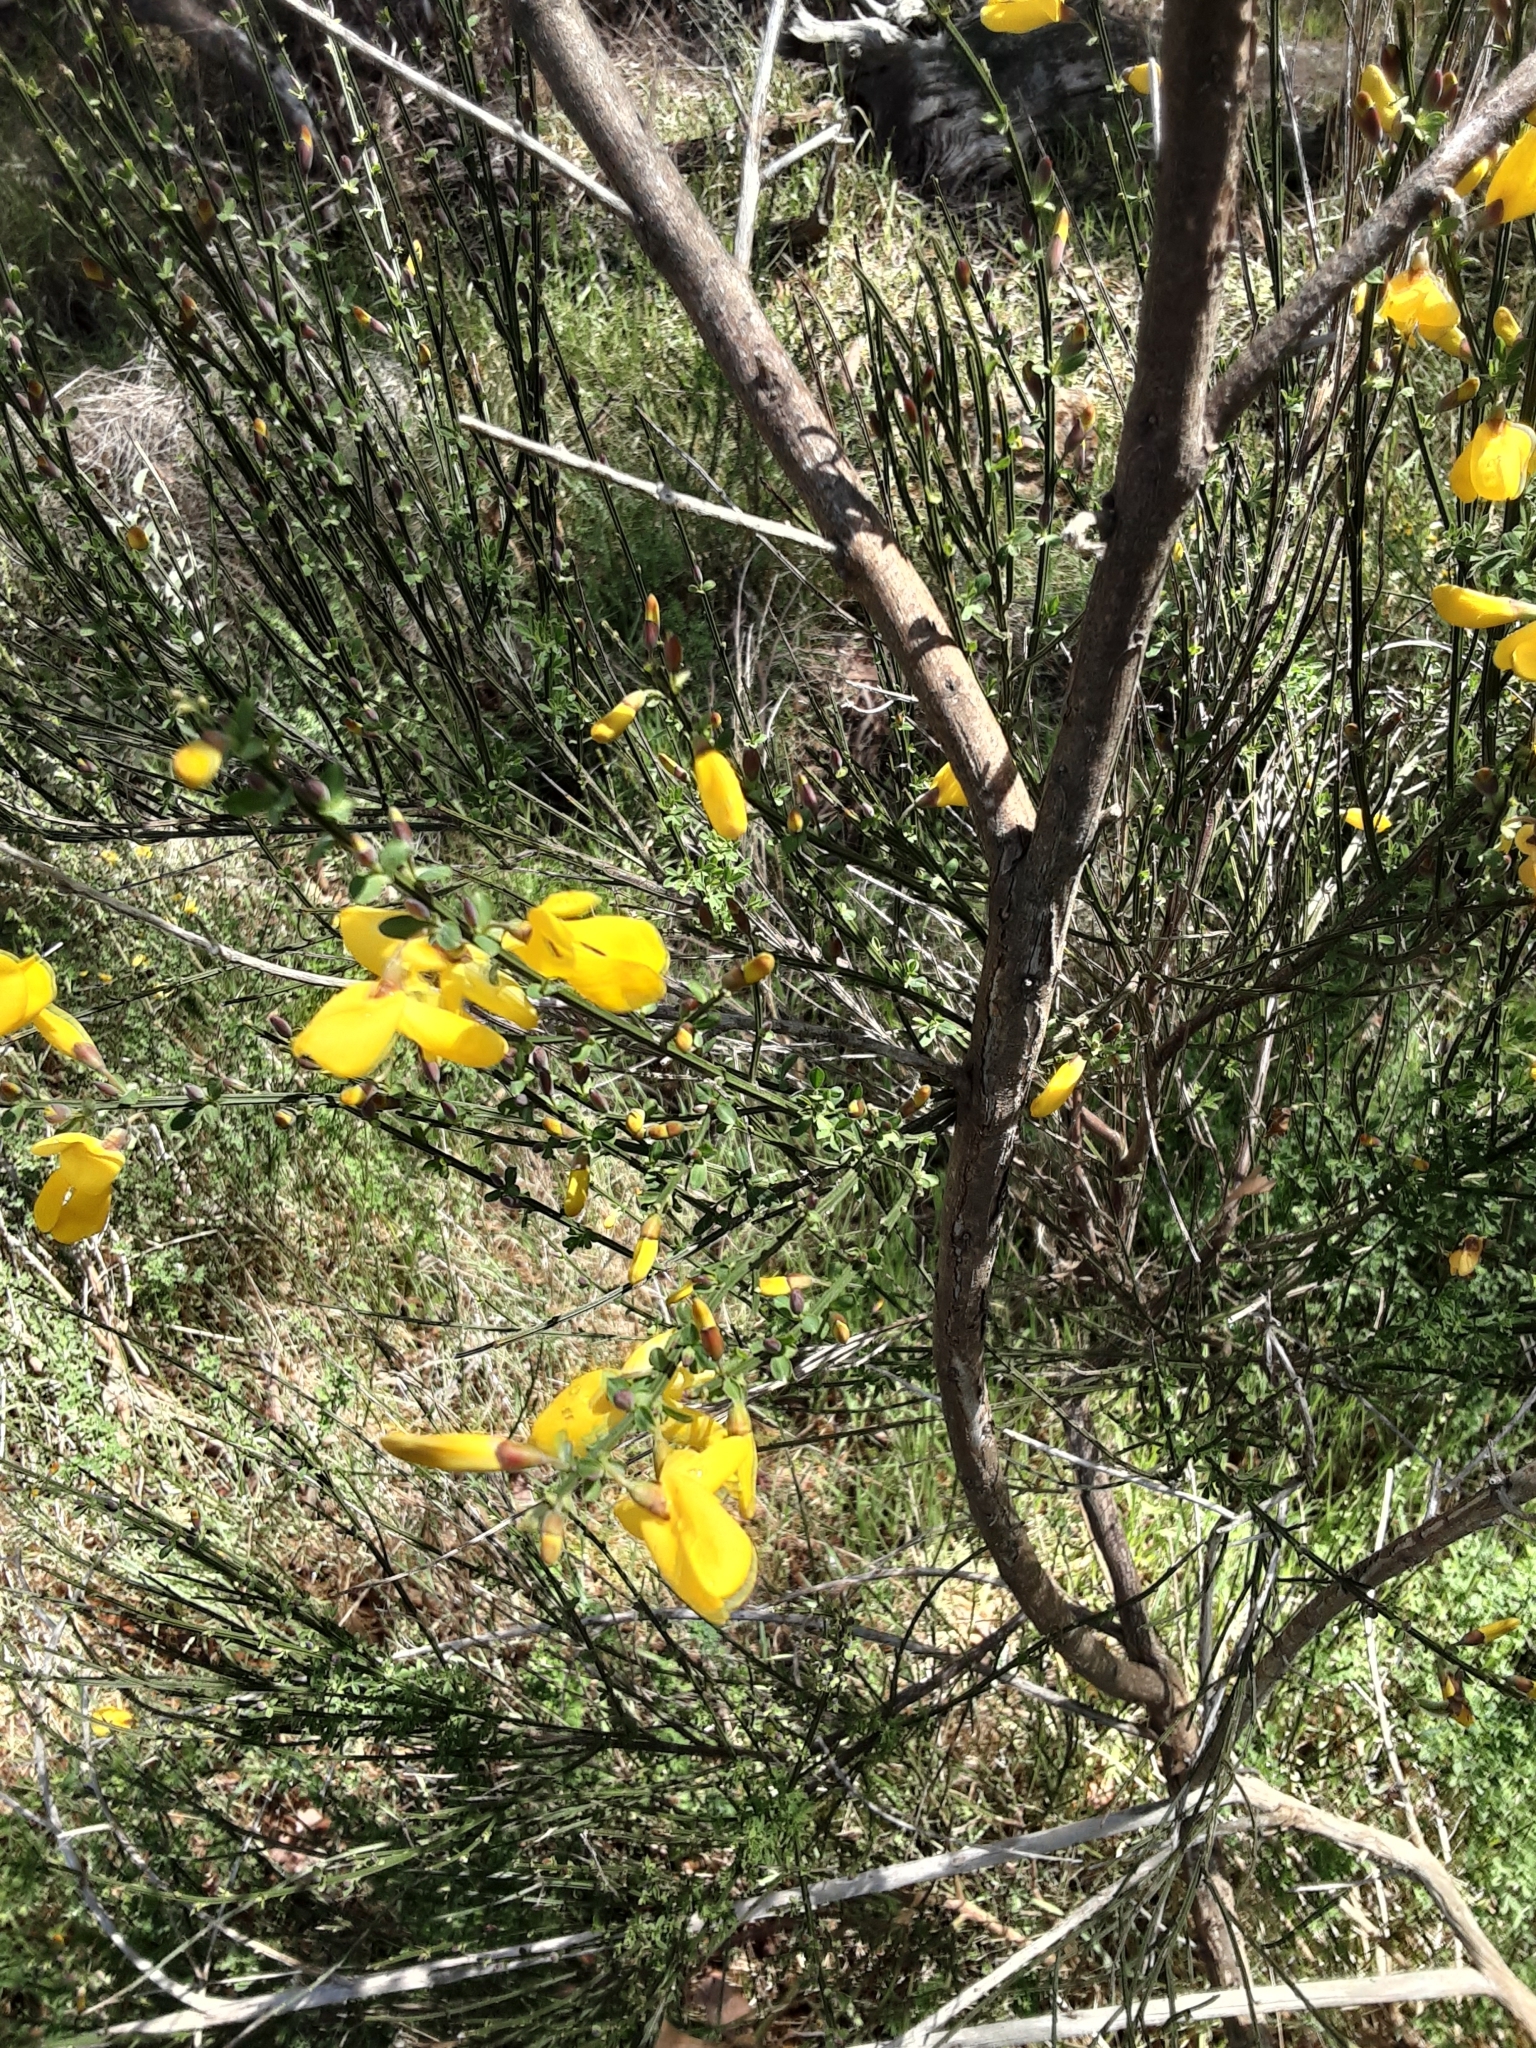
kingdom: Plantae
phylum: Tracheophyta
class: Magnoliopsida
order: Fabales
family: Fabaceae
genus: Cytisus
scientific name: Cytisus scoparius
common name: Scotch broom
